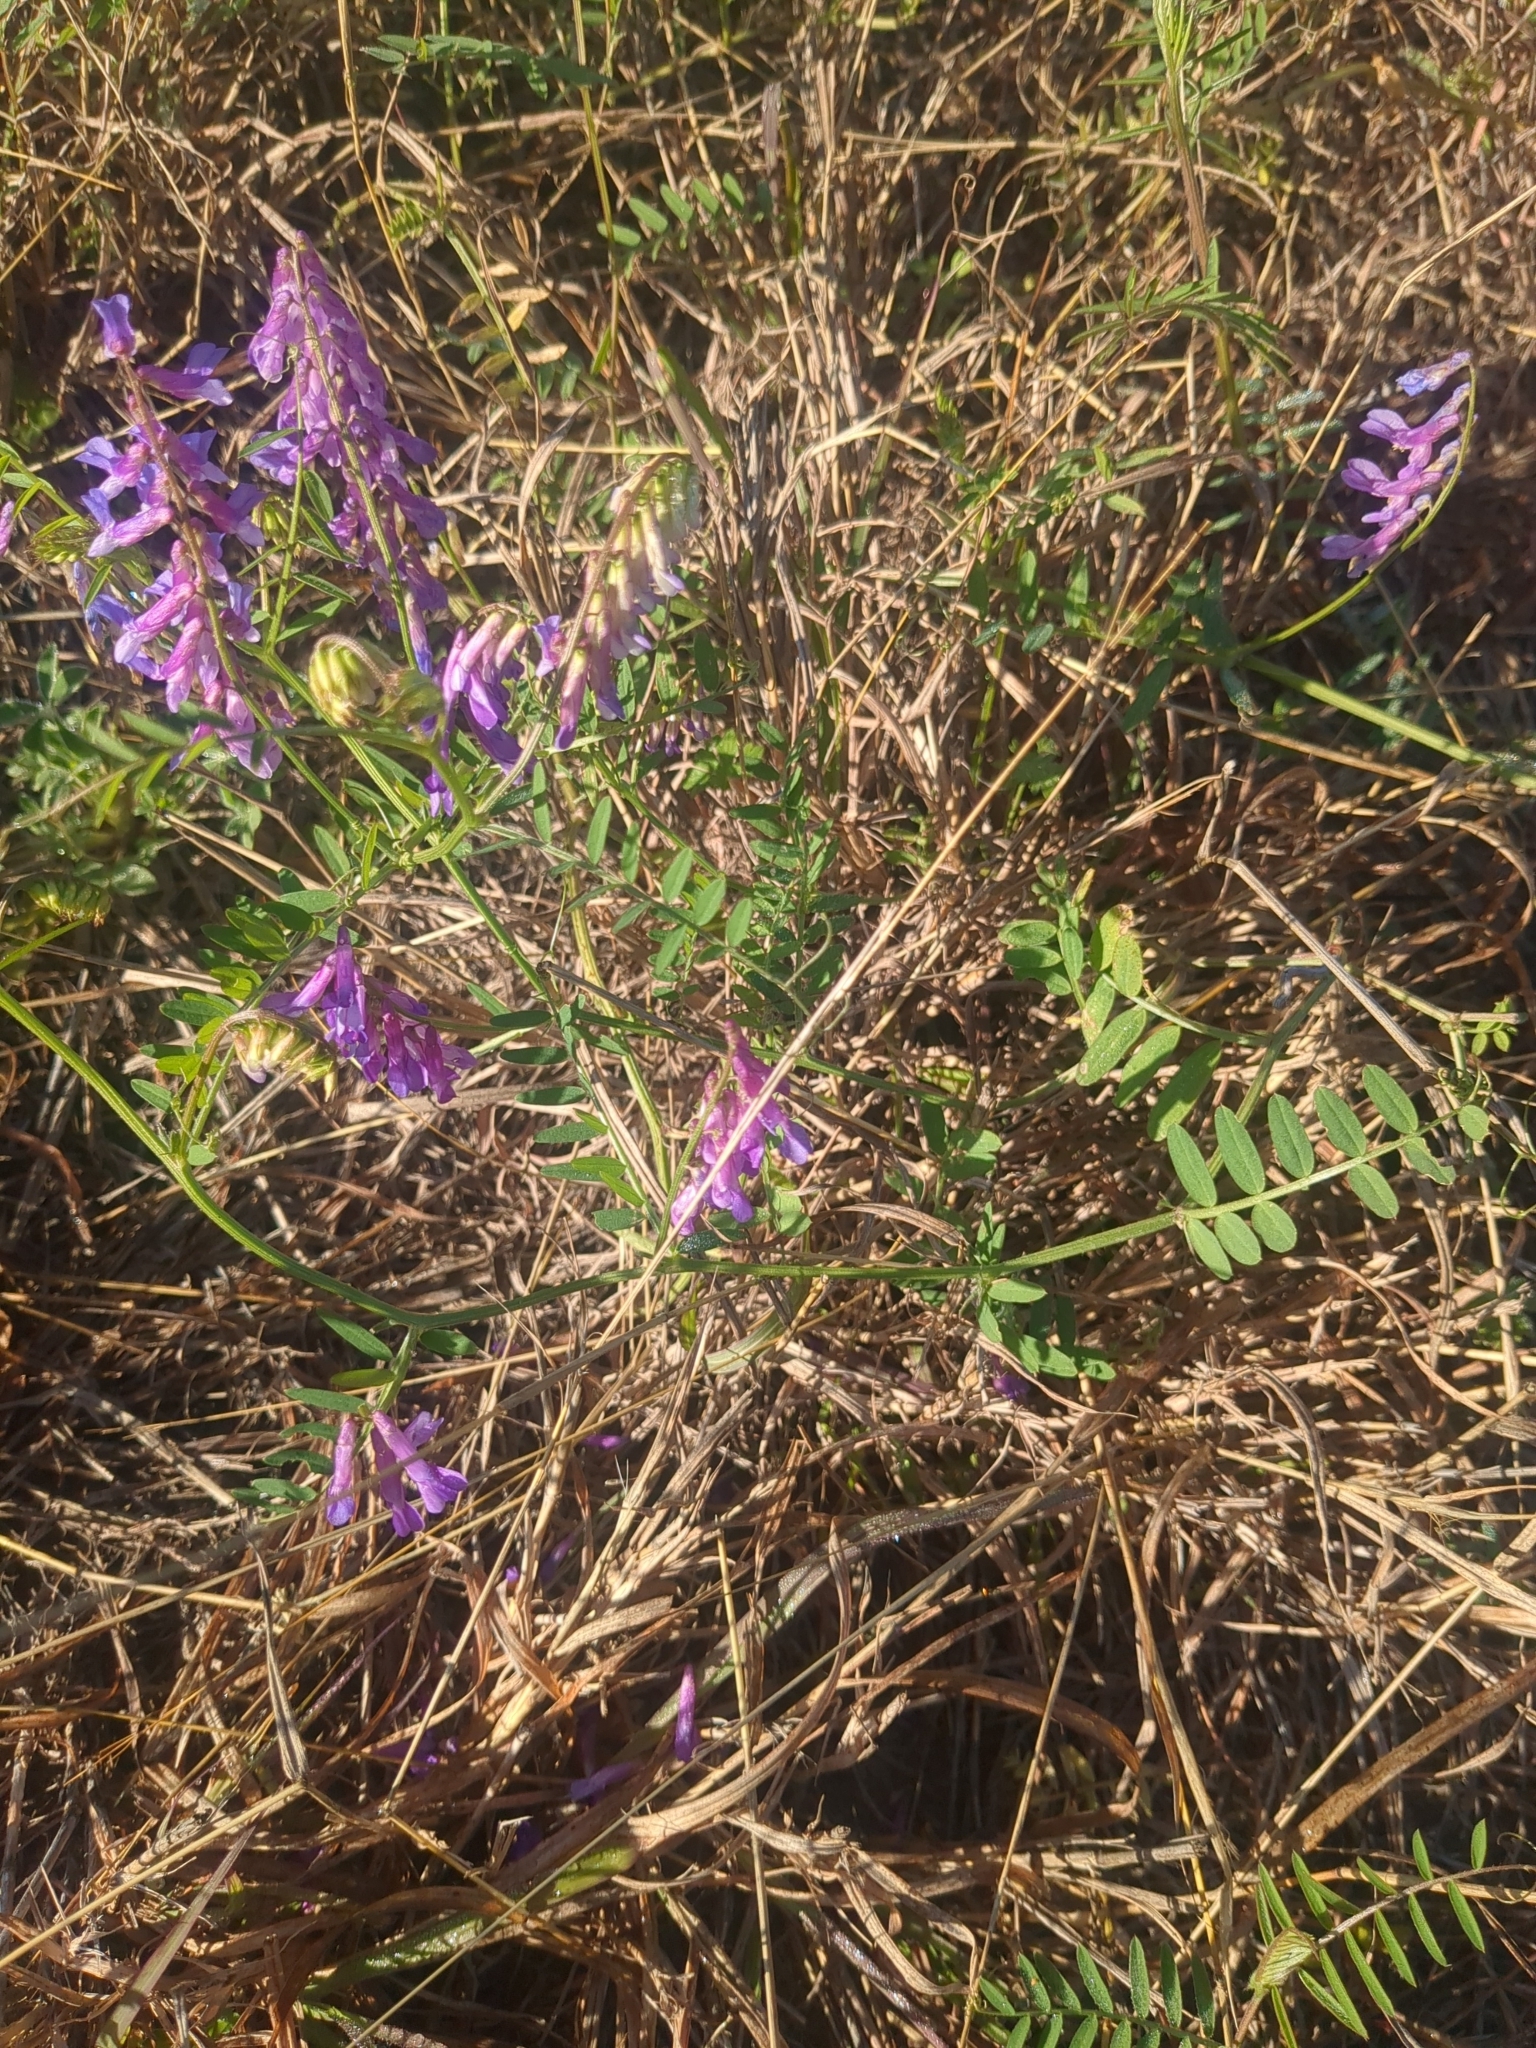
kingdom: Plantae
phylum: Tracheophyta
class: Magnoliopsida
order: Fabales
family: Fabaceae
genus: Vicia
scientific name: Vicia villosa
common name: Fodder vetch
